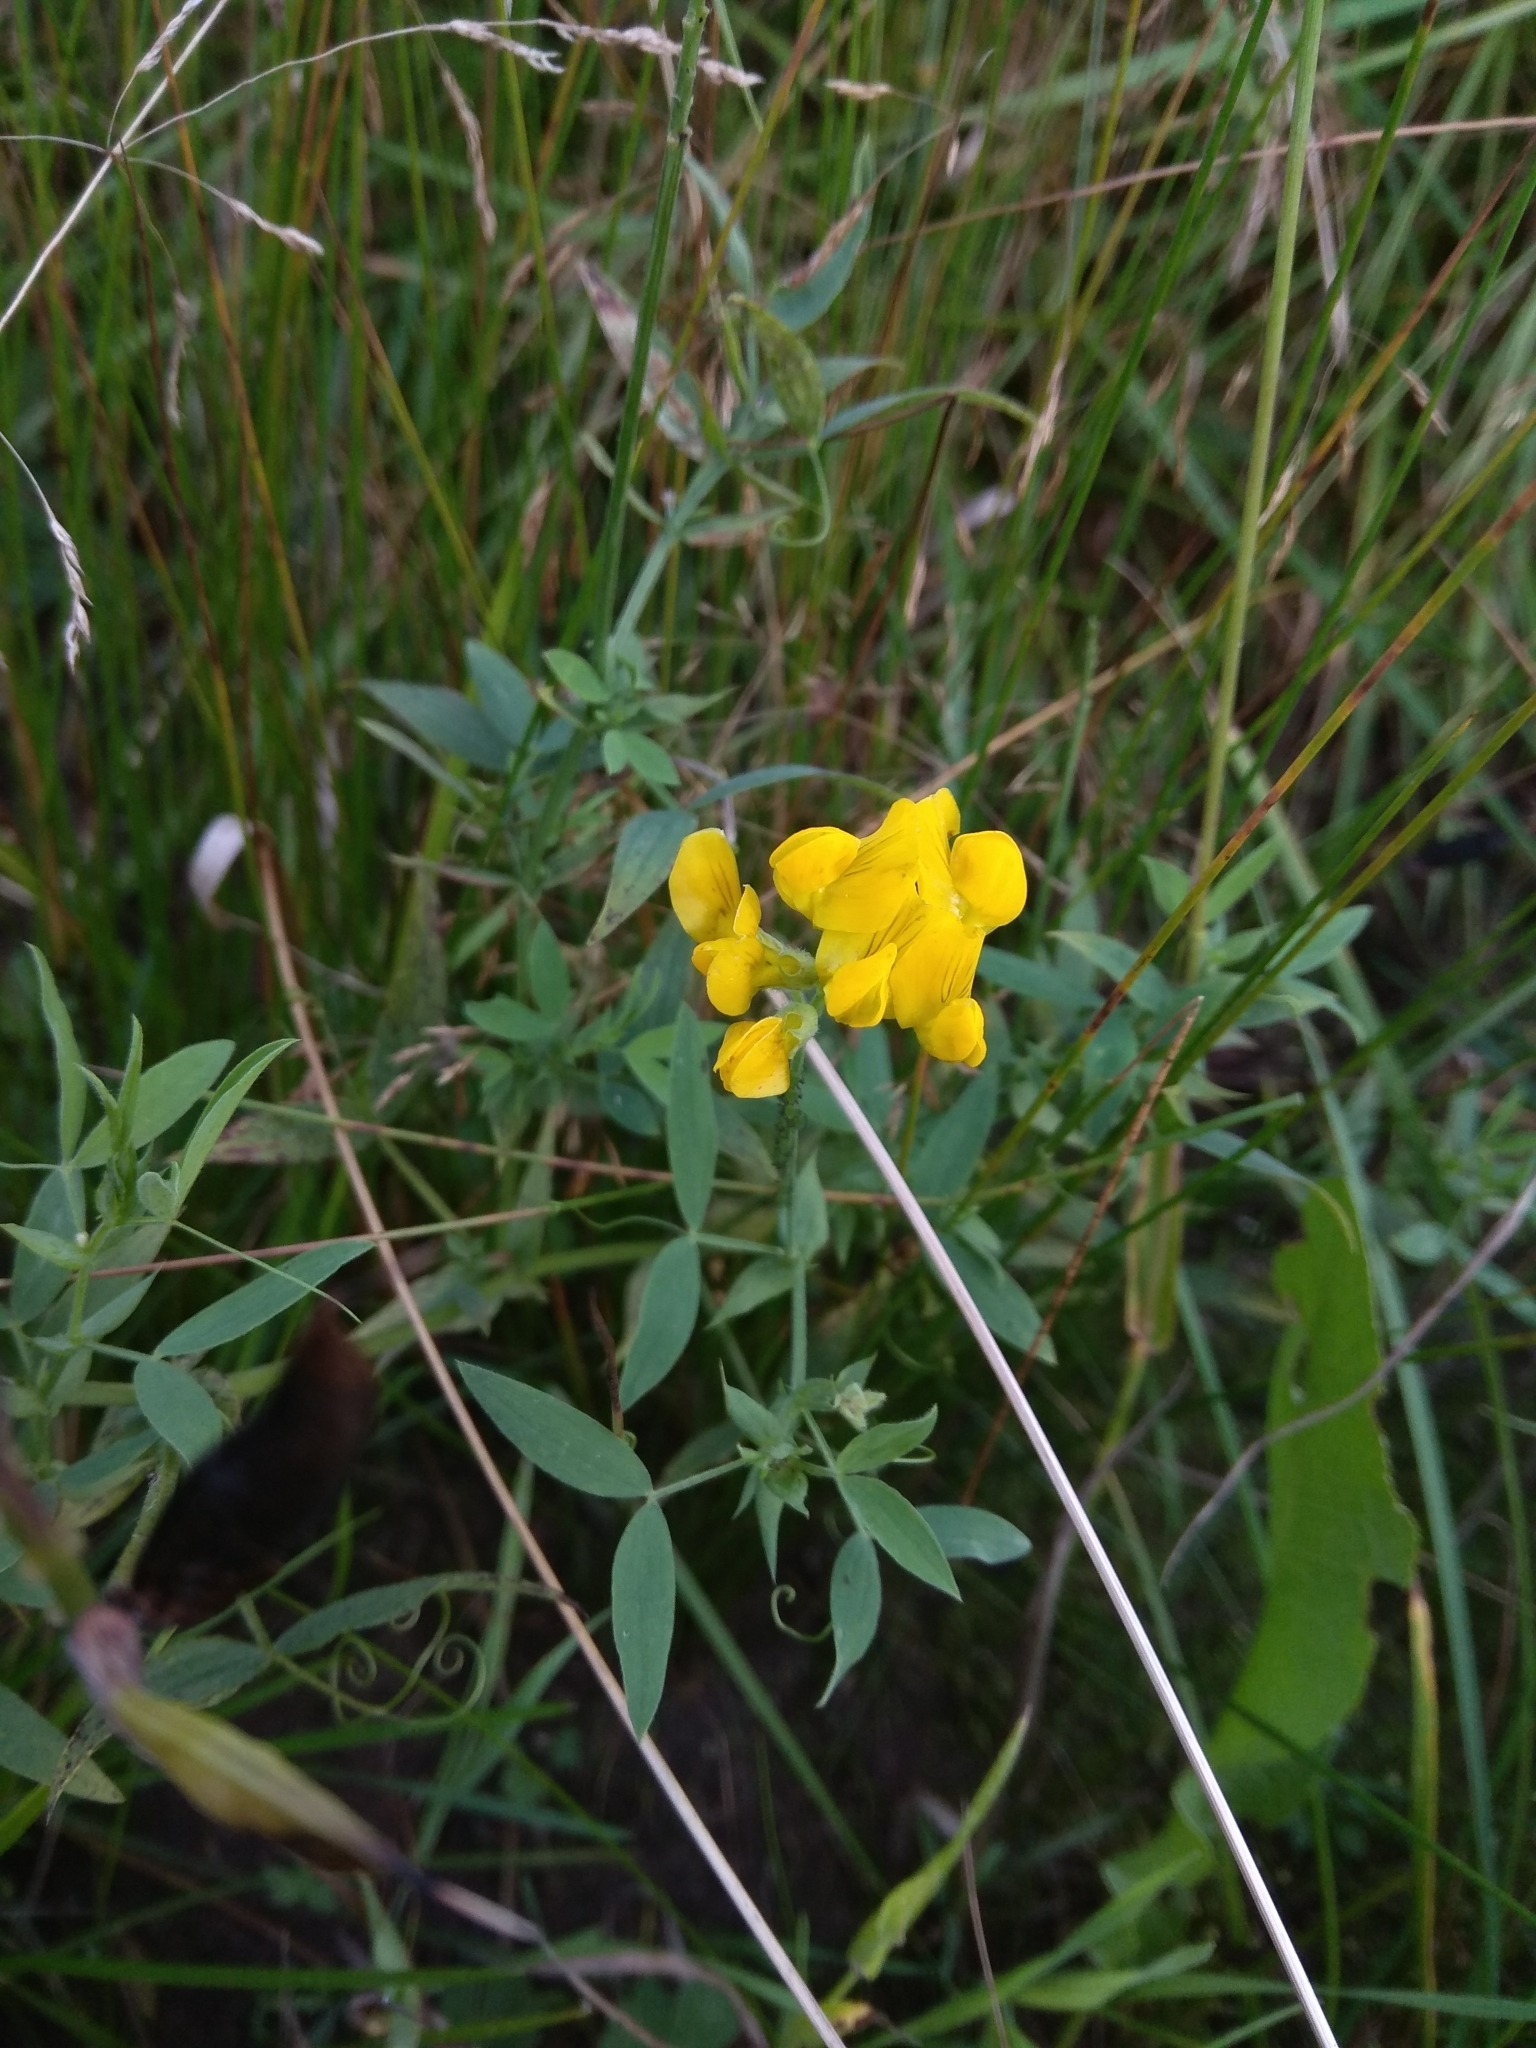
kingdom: Plantae
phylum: Tracheophyta
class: Magnoliopsida
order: Fabales
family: Fabaceae
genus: Lathyrus
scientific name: Lathyrus pratensis
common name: Meadow vetchling
